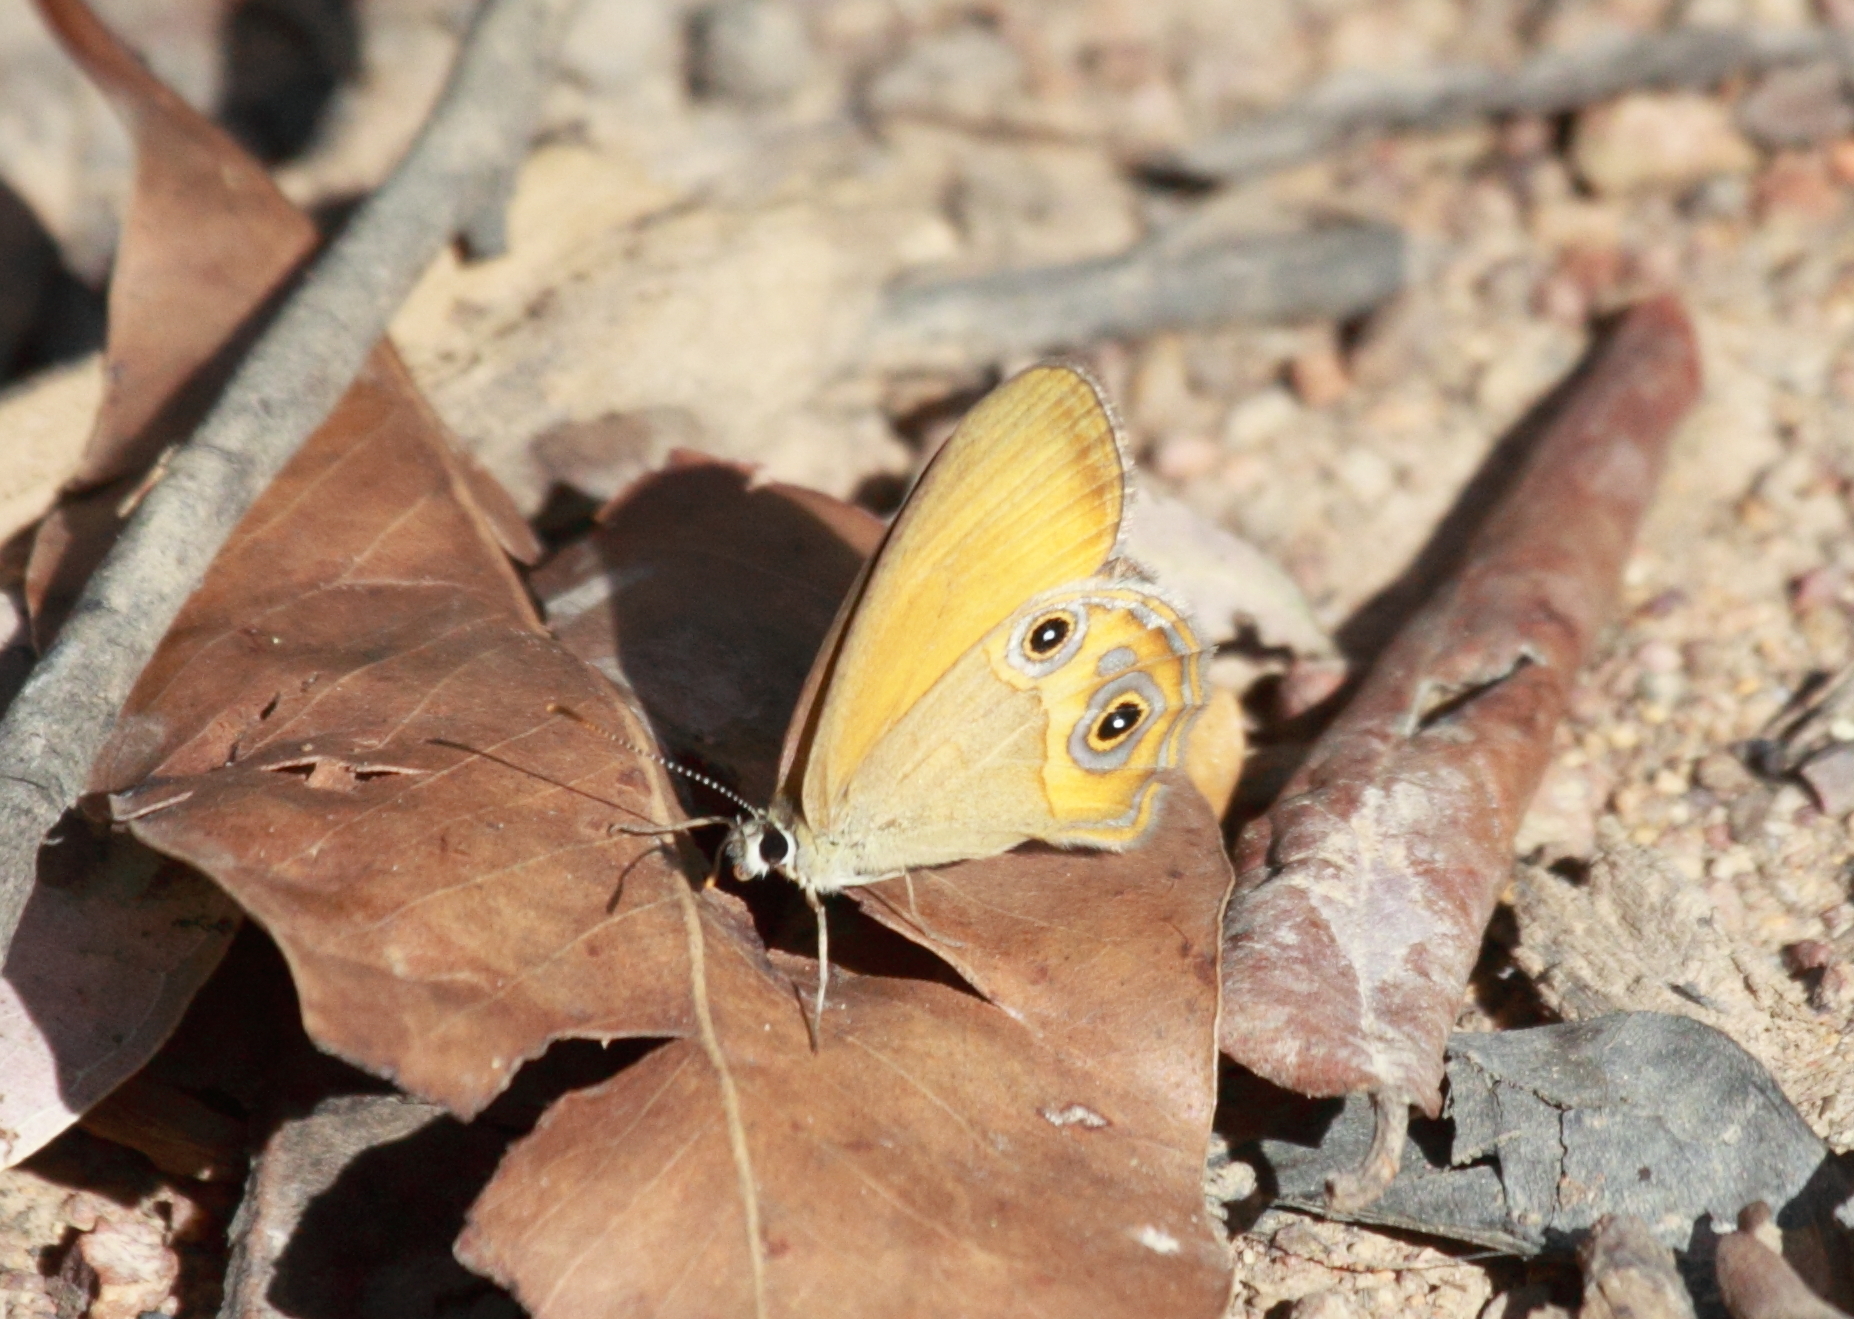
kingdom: Animalia
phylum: Arthropoda
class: Insecta
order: Lepidoptera
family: Nymphalidae
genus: Hypocysta
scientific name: Hypocysta adiante
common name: Orange ringlet
